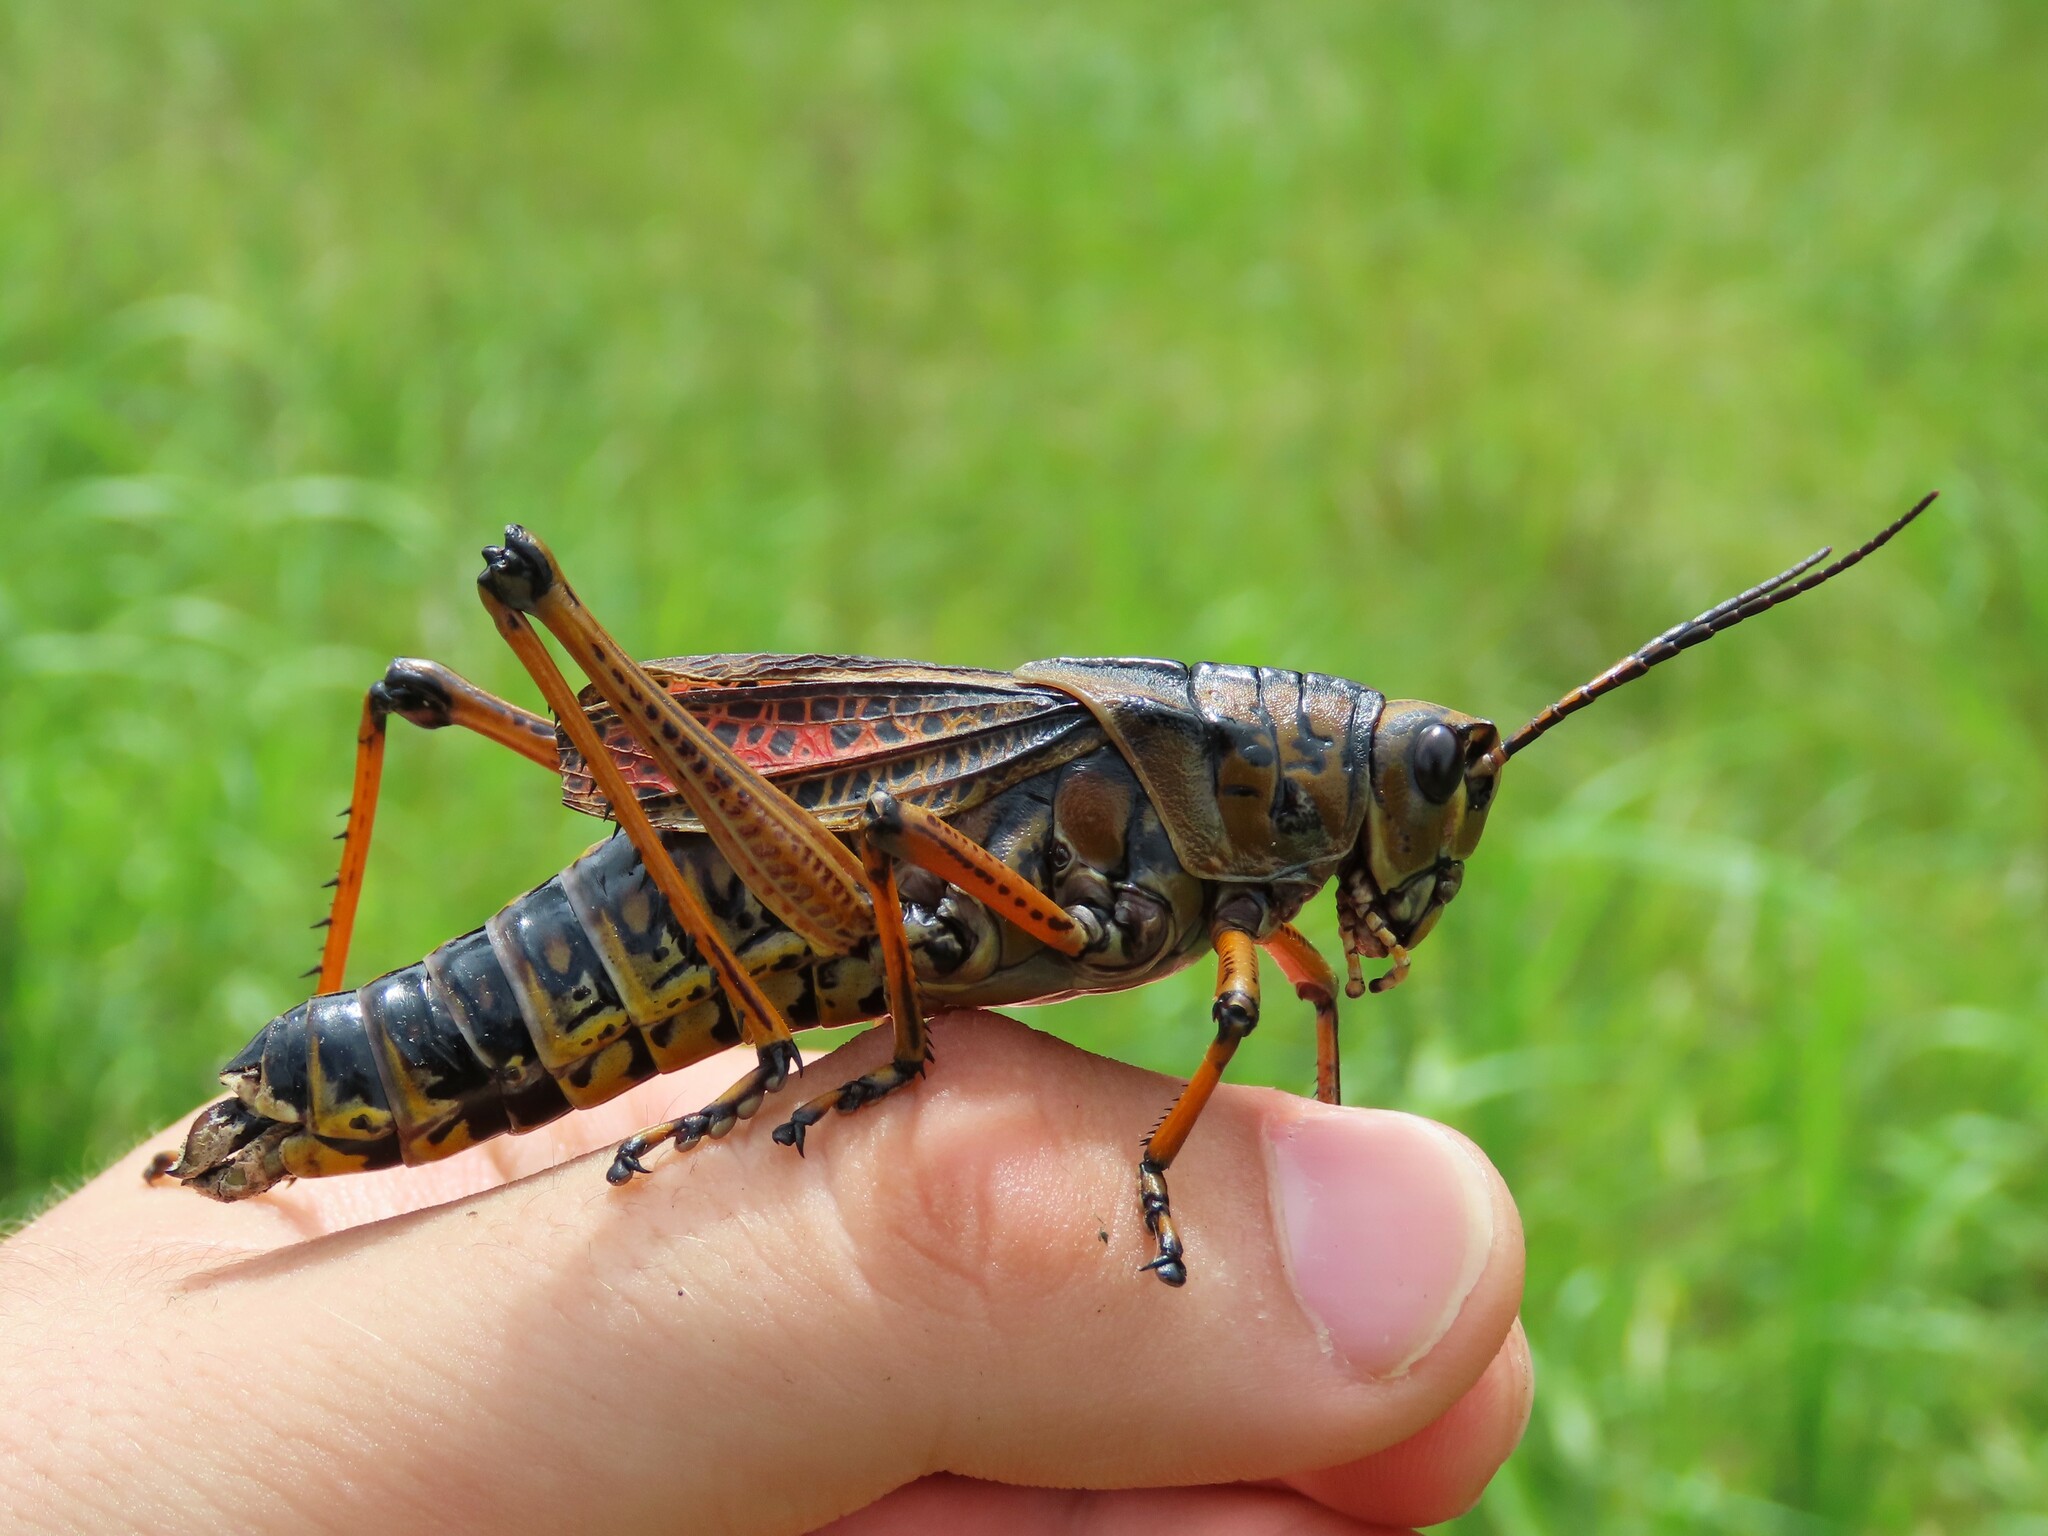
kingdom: Animalia
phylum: Arthropoda
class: Insecta
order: Orthoptera
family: Romaleidae
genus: Romalea
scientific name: Romalea microptera
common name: Eastern lubber grasshopper
